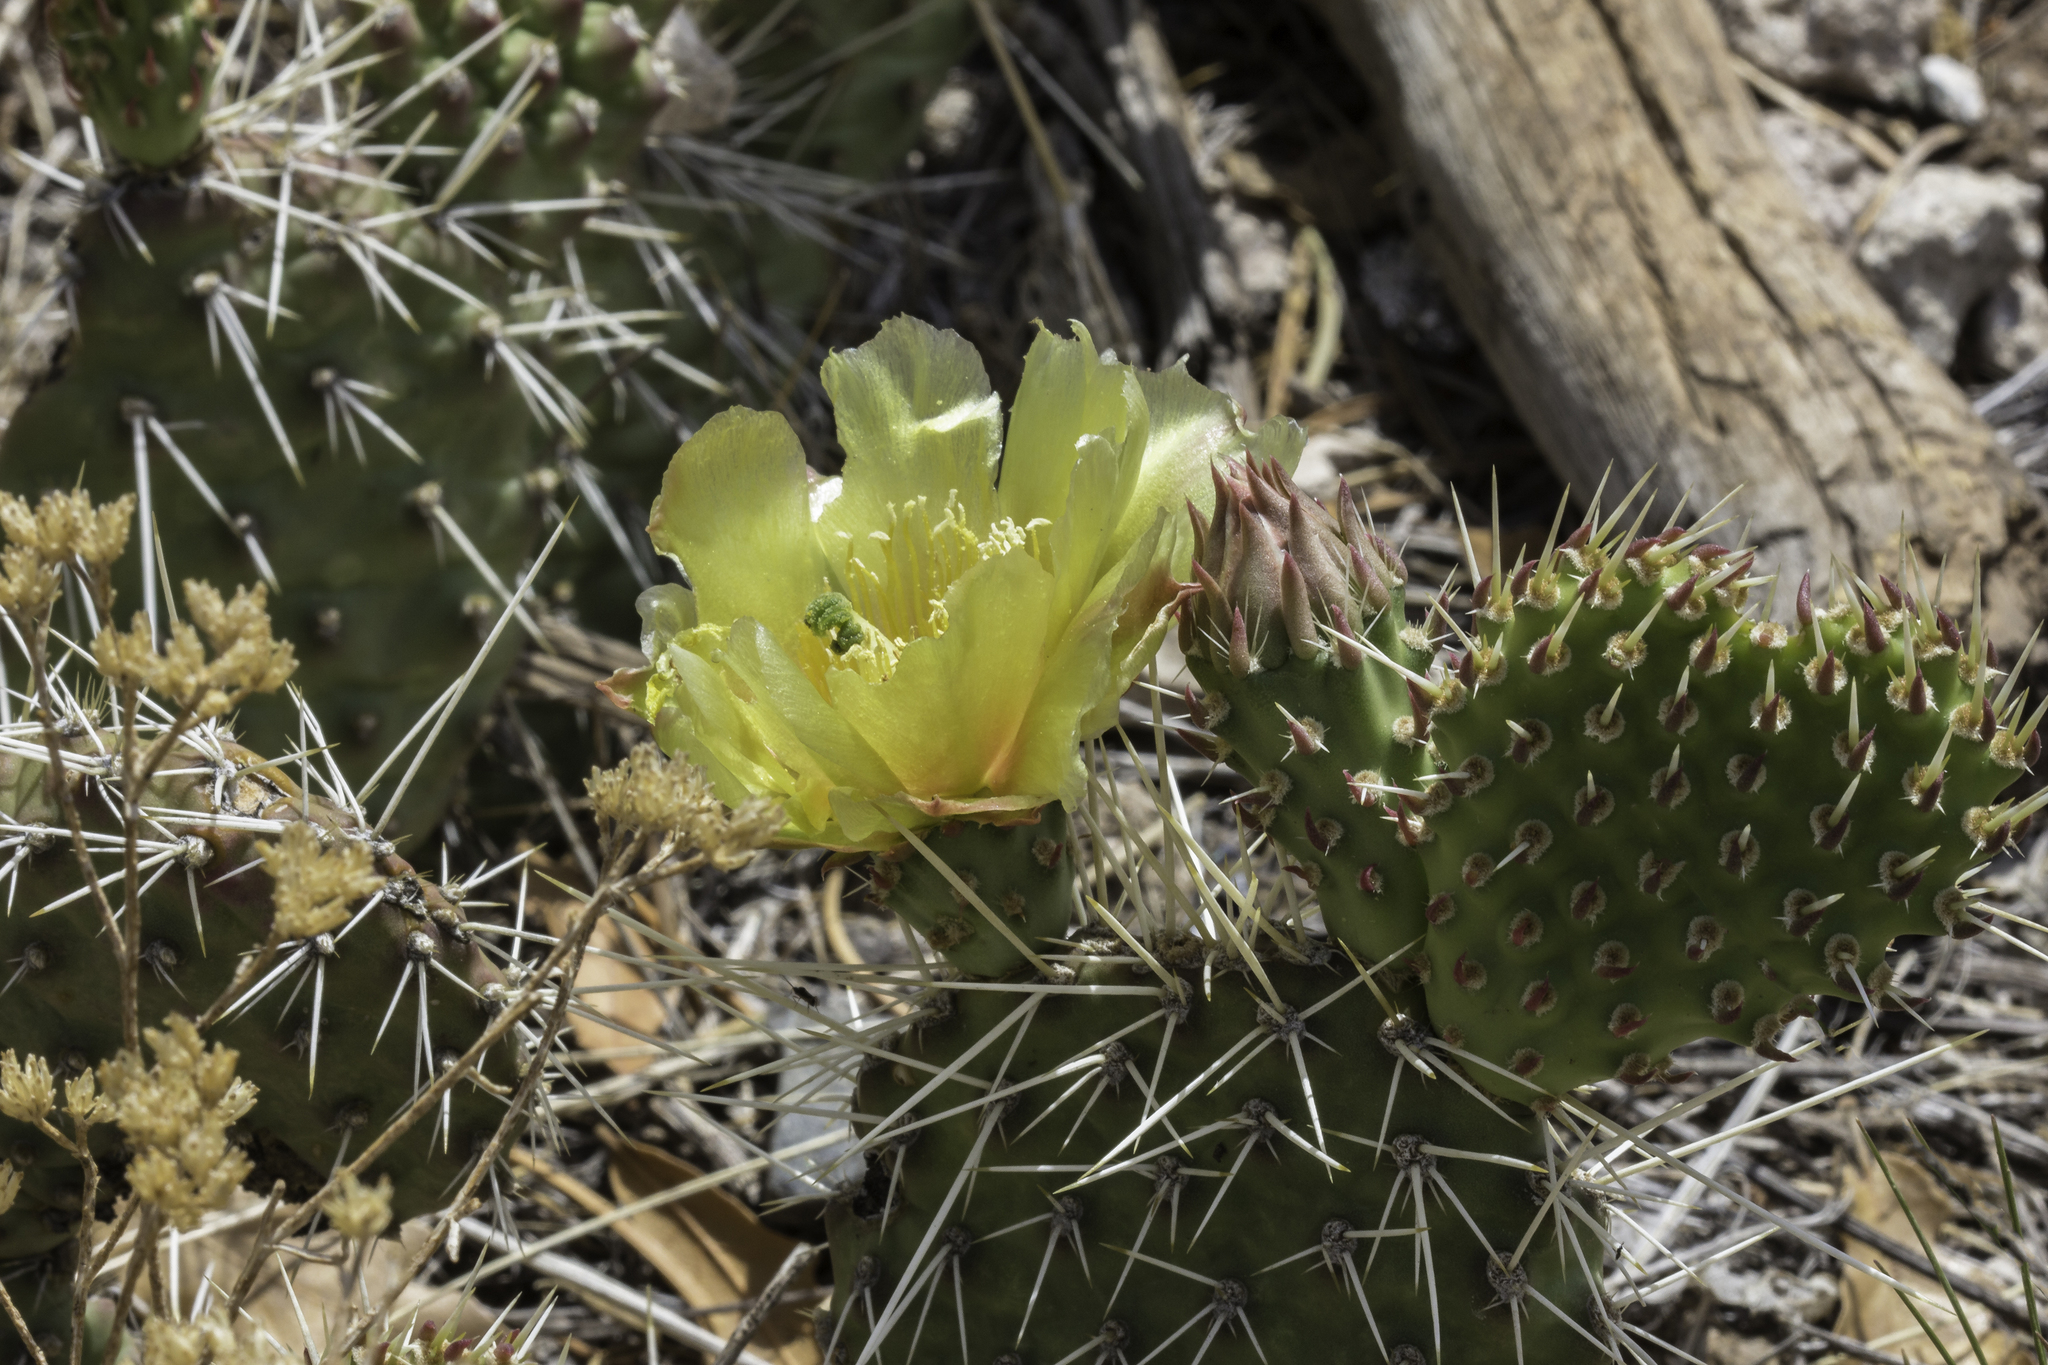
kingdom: Plantae
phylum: Tracheophyta
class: Magnoliopsida
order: Caryophyllales
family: Cactaceae
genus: Opuntia
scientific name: Opuntia polyacantha
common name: Plains prickly-pear
